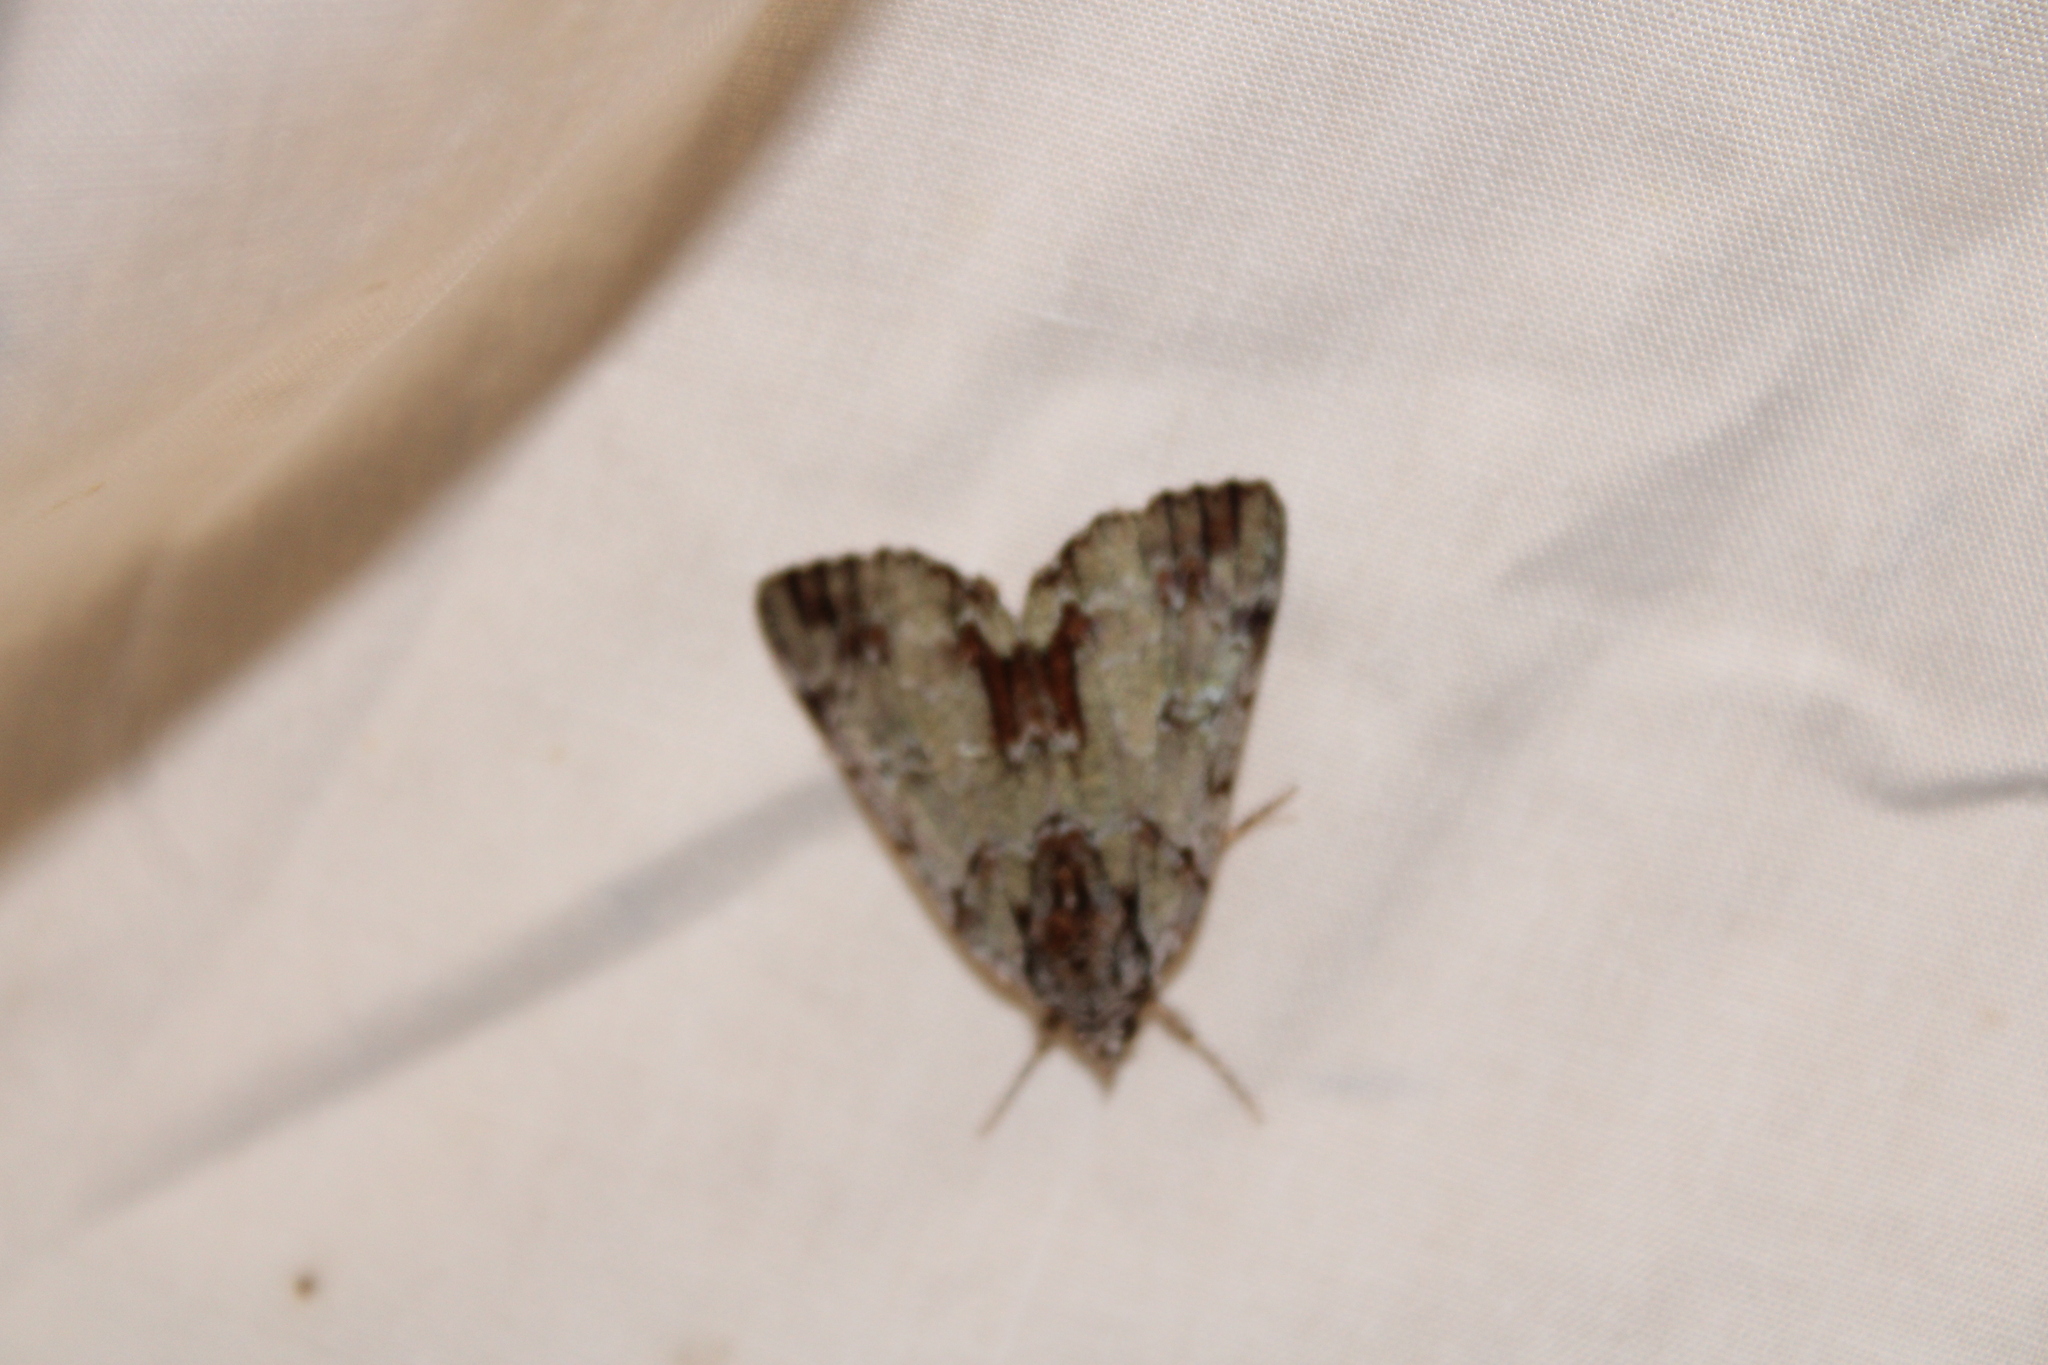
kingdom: Animalia
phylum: Arthropoda
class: Insecta
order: Lepidoptera
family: Erebidae
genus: Catocala
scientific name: Catocala praeclara
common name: Praeclara underwing
